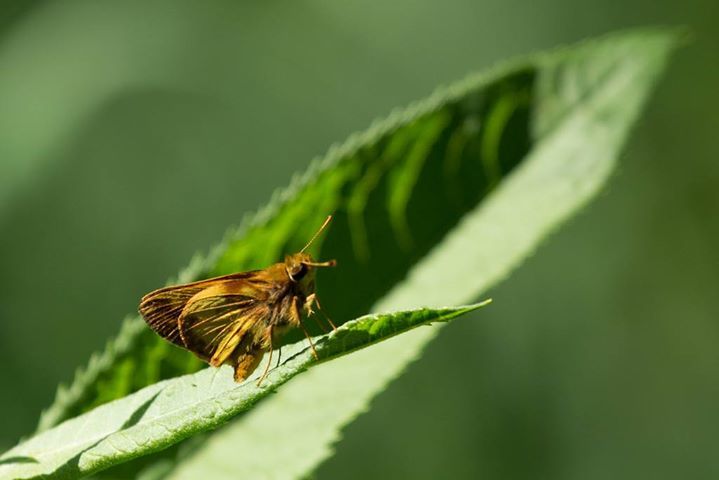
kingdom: Animalia
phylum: Arthropoda
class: Insecta
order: Lepidoptera
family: Hesperiidae
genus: Lon
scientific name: Lon zabulon
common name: Zabulon skipper
